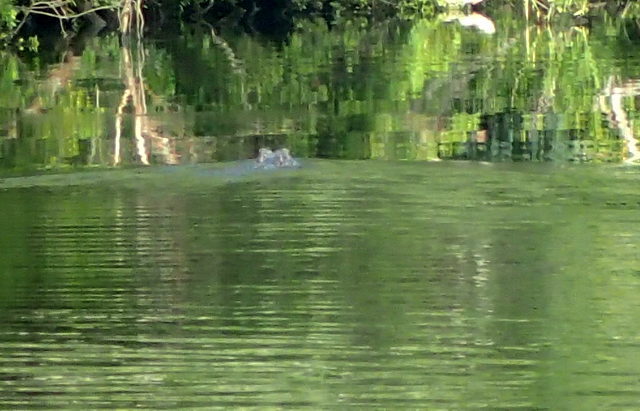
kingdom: Animalia
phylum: Chordata
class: Crocodylia
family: Alligatoridae
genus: Alligator
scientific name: Alligator mississippiensis
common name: American alligator
